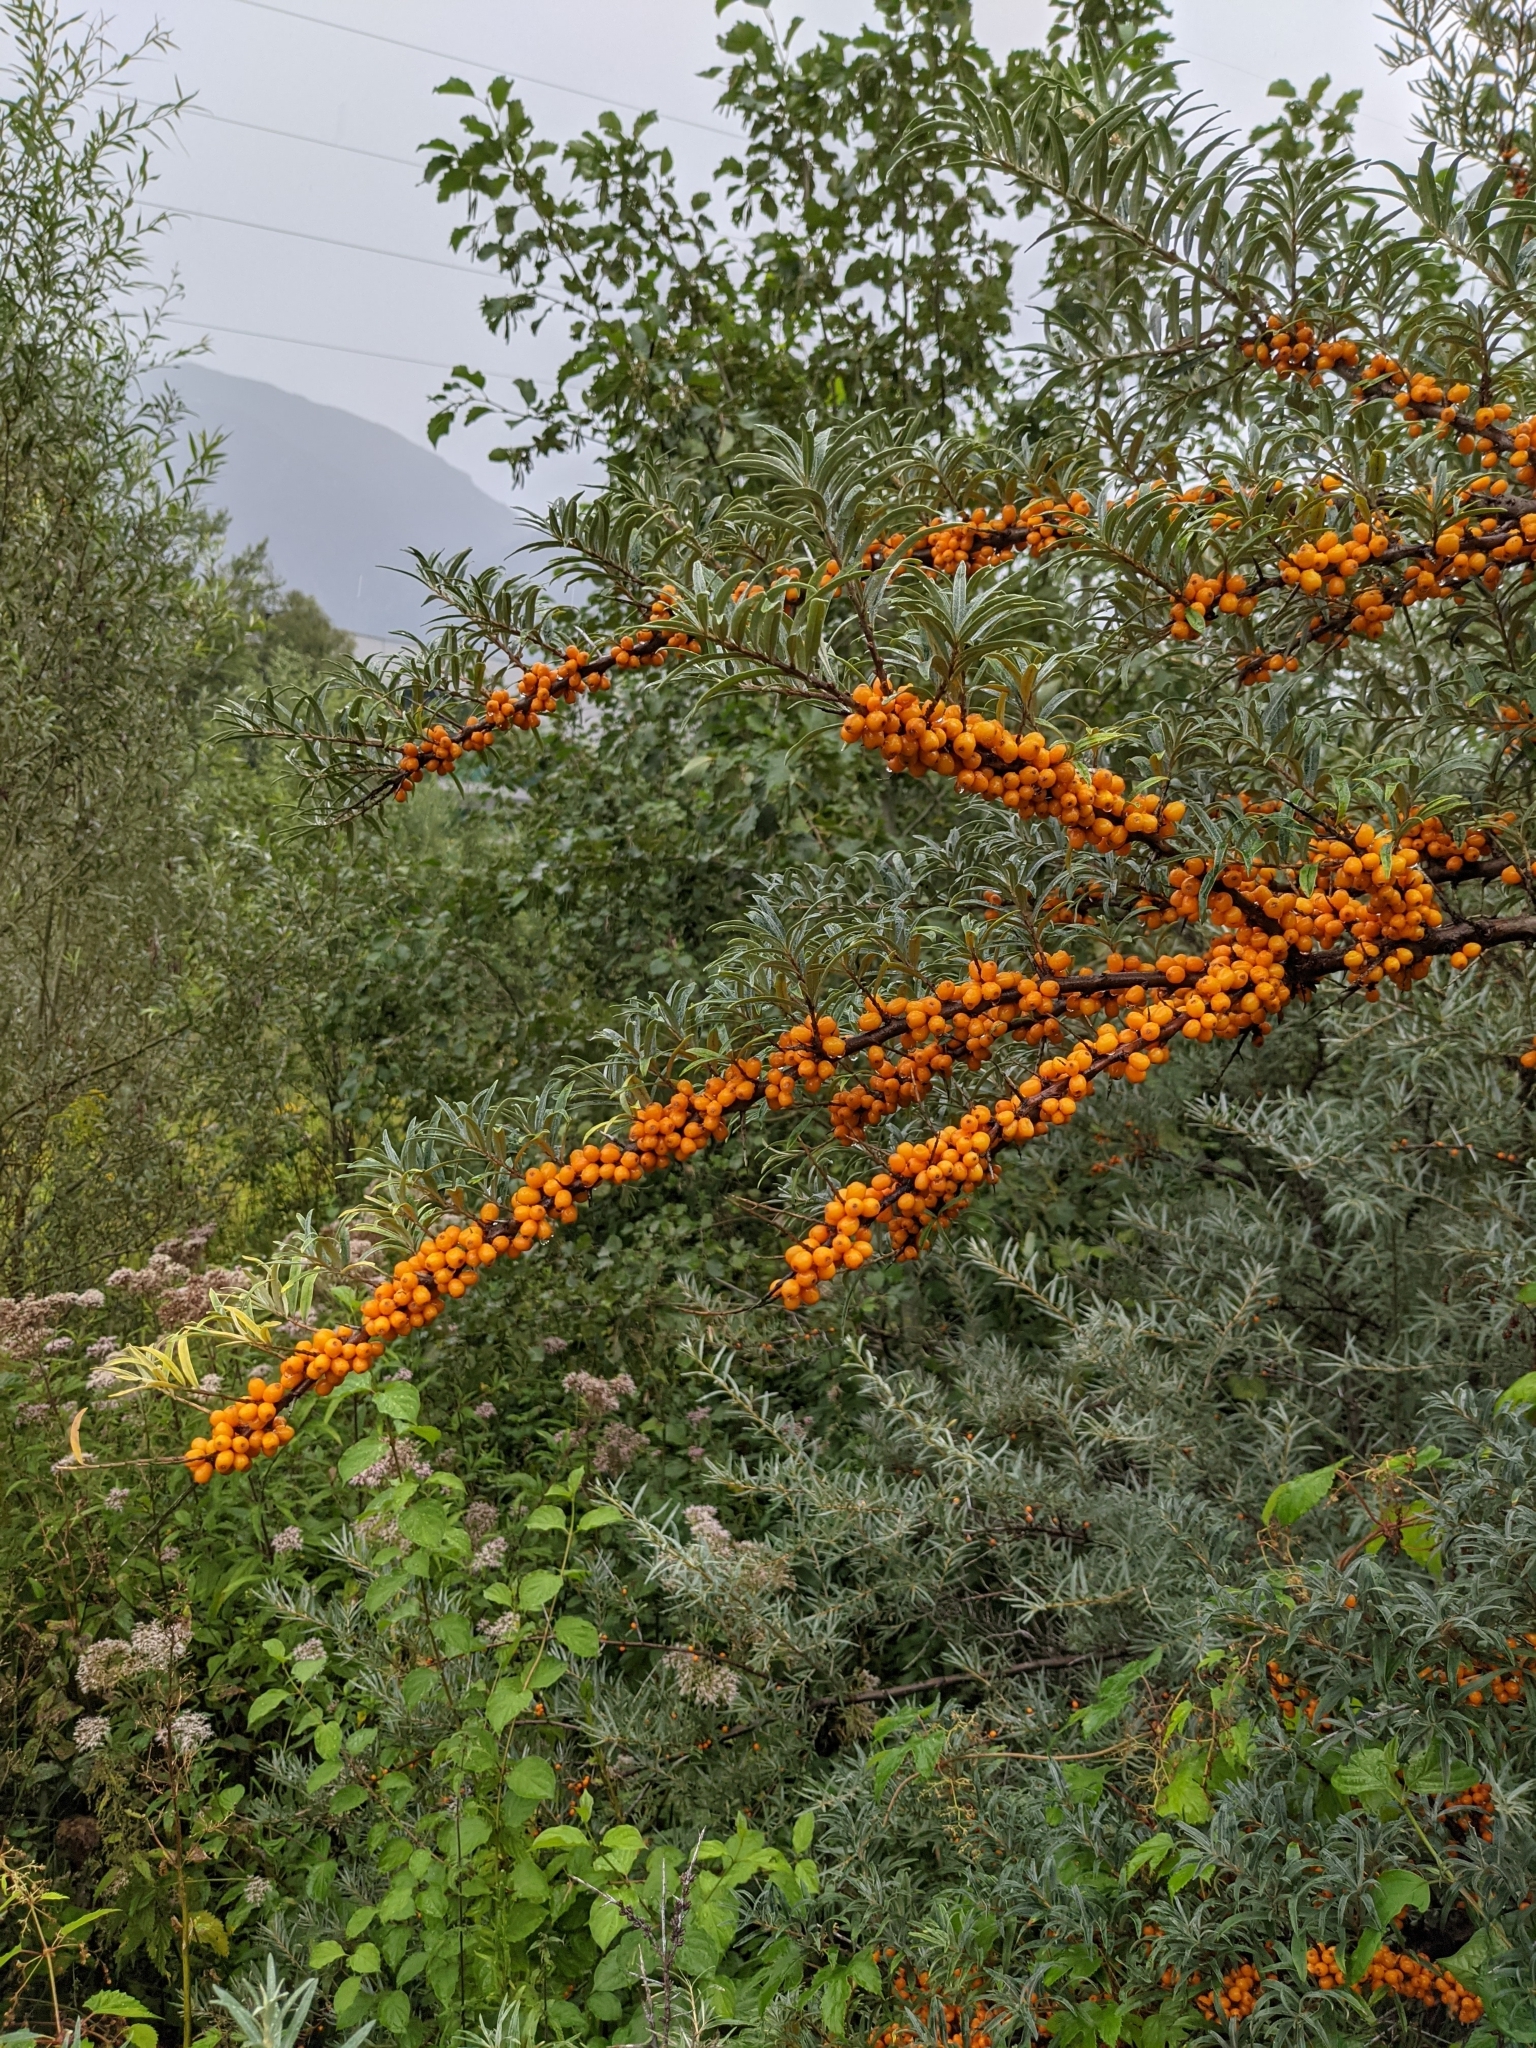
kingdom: Plantae
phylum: Tracheophyta
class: Magnoliopsida
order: Rosales
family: Elaeagnaceae
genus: Hippophae
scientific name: Hippophae rhamnoides
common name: Sea-buckthorn
